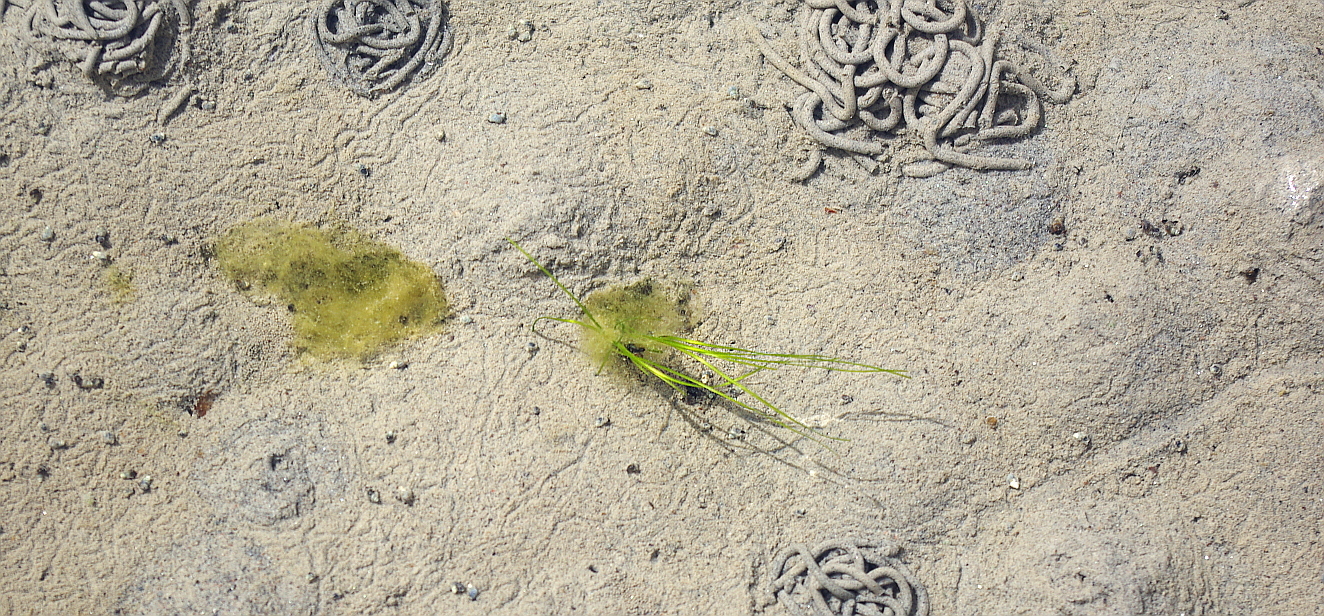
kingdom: Plantae
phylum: Tracheophyta
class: Liliopsida
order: Alismatales
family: Zosteraceae
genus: Zostera
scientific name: Zostera marina
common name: Eelgrass
